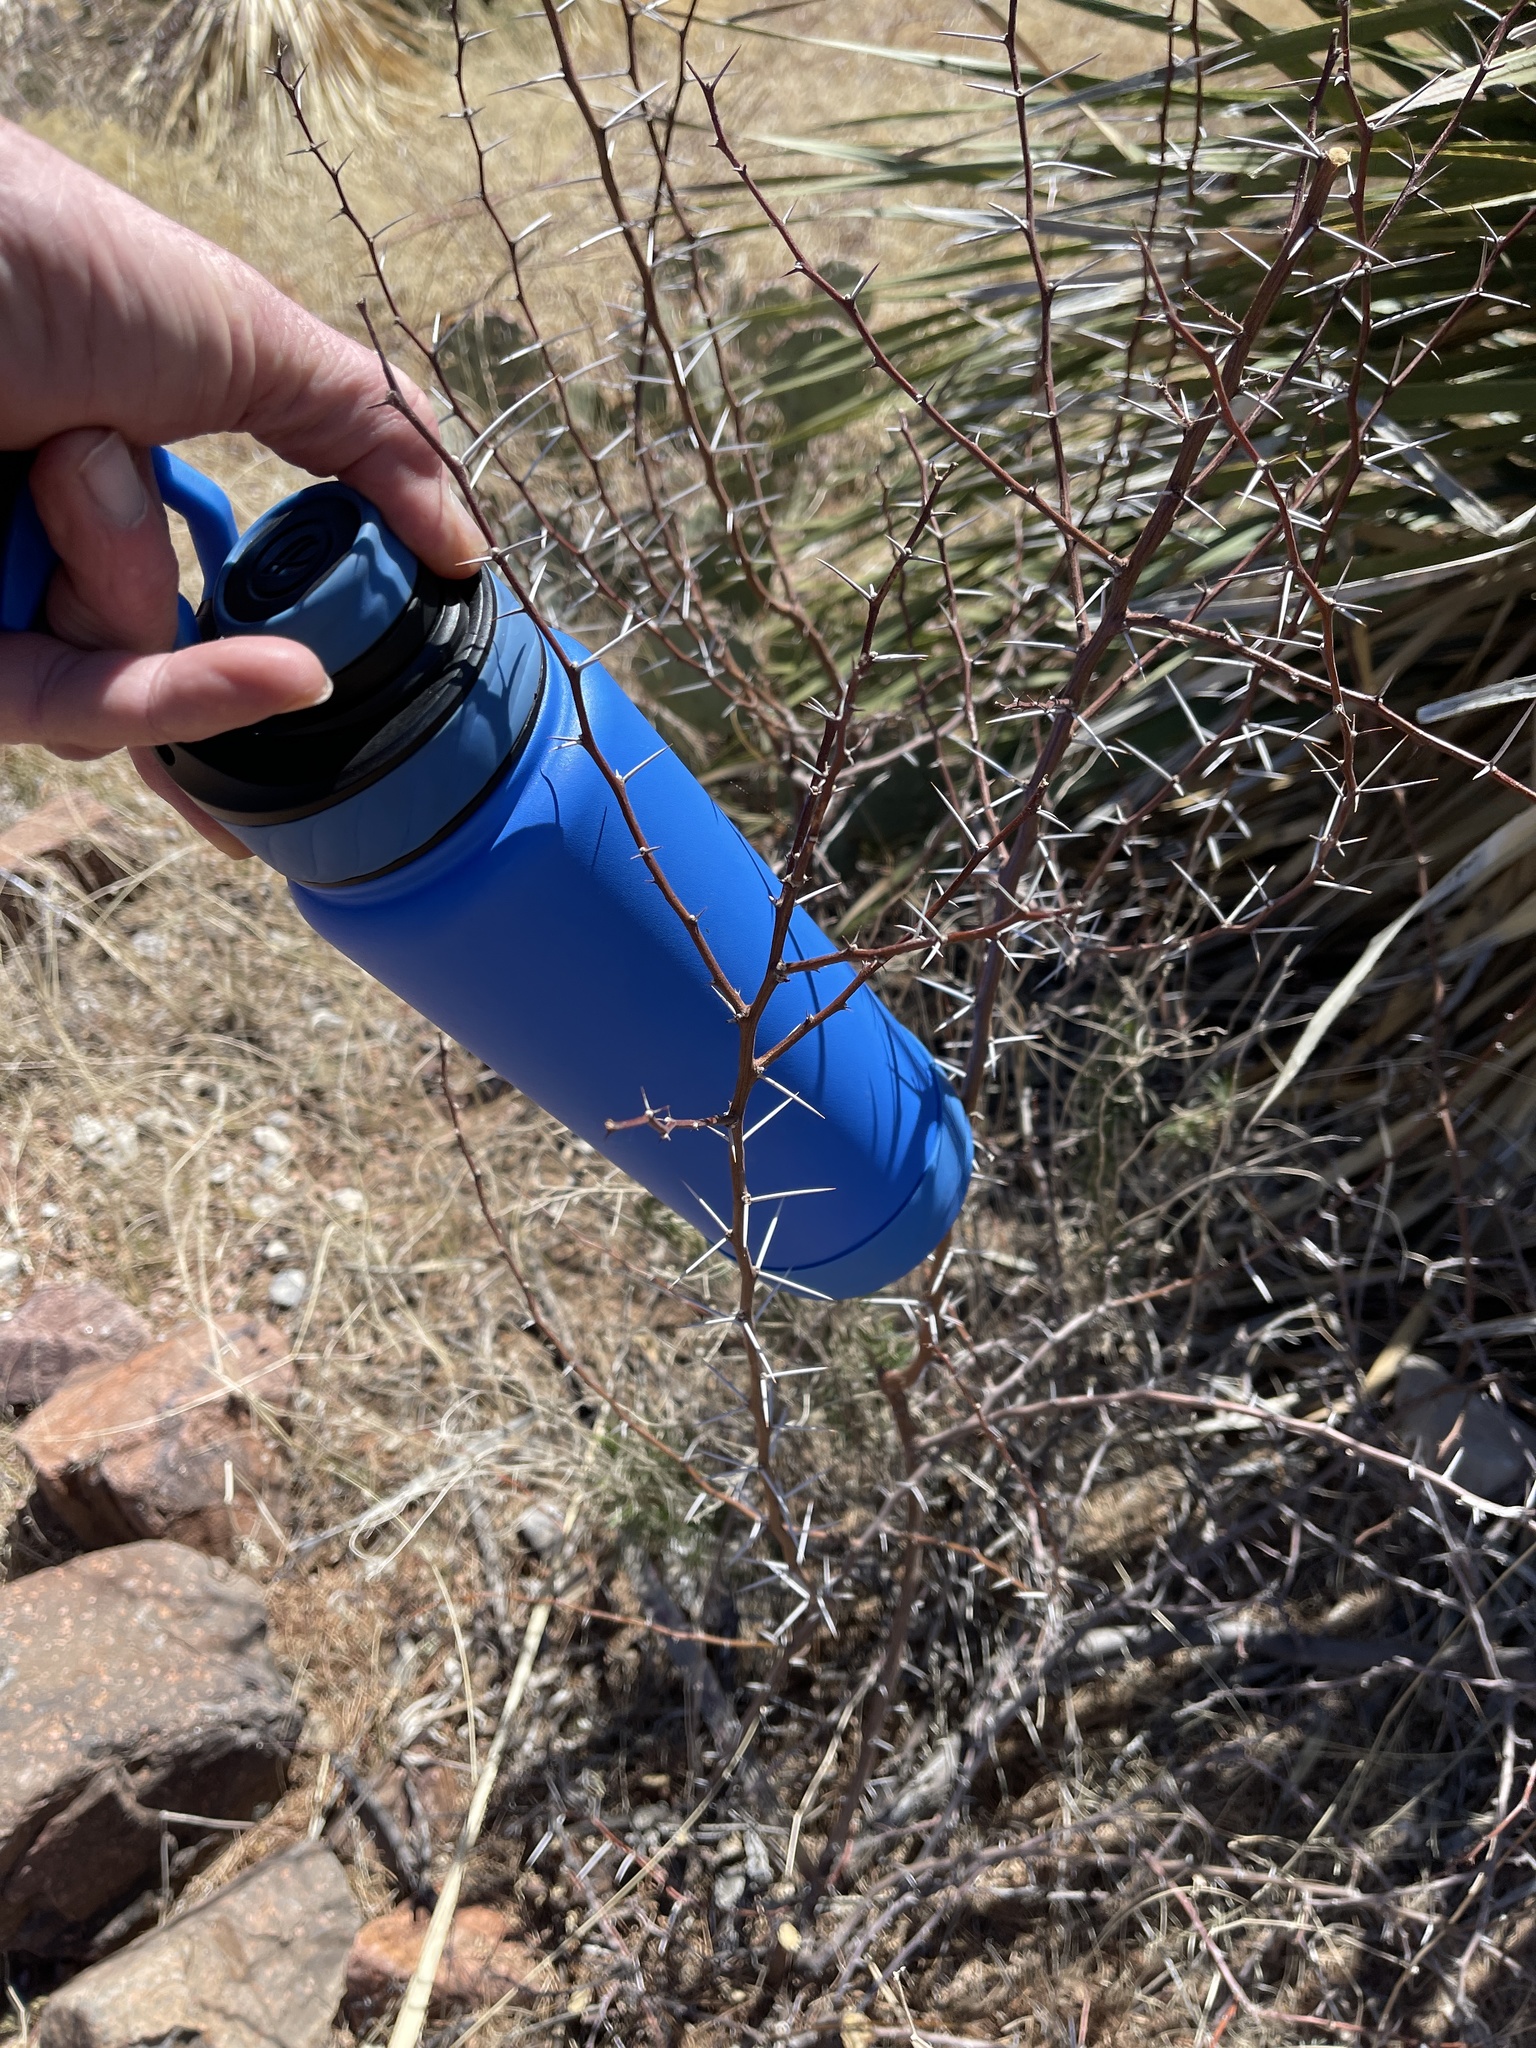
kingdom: Plantae
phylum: Tracheophyta
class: Magnoliopsida
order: Fabales
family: Fabaceae
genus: Vachellia
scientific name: Vachellia constricta
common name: Mescat acacia
